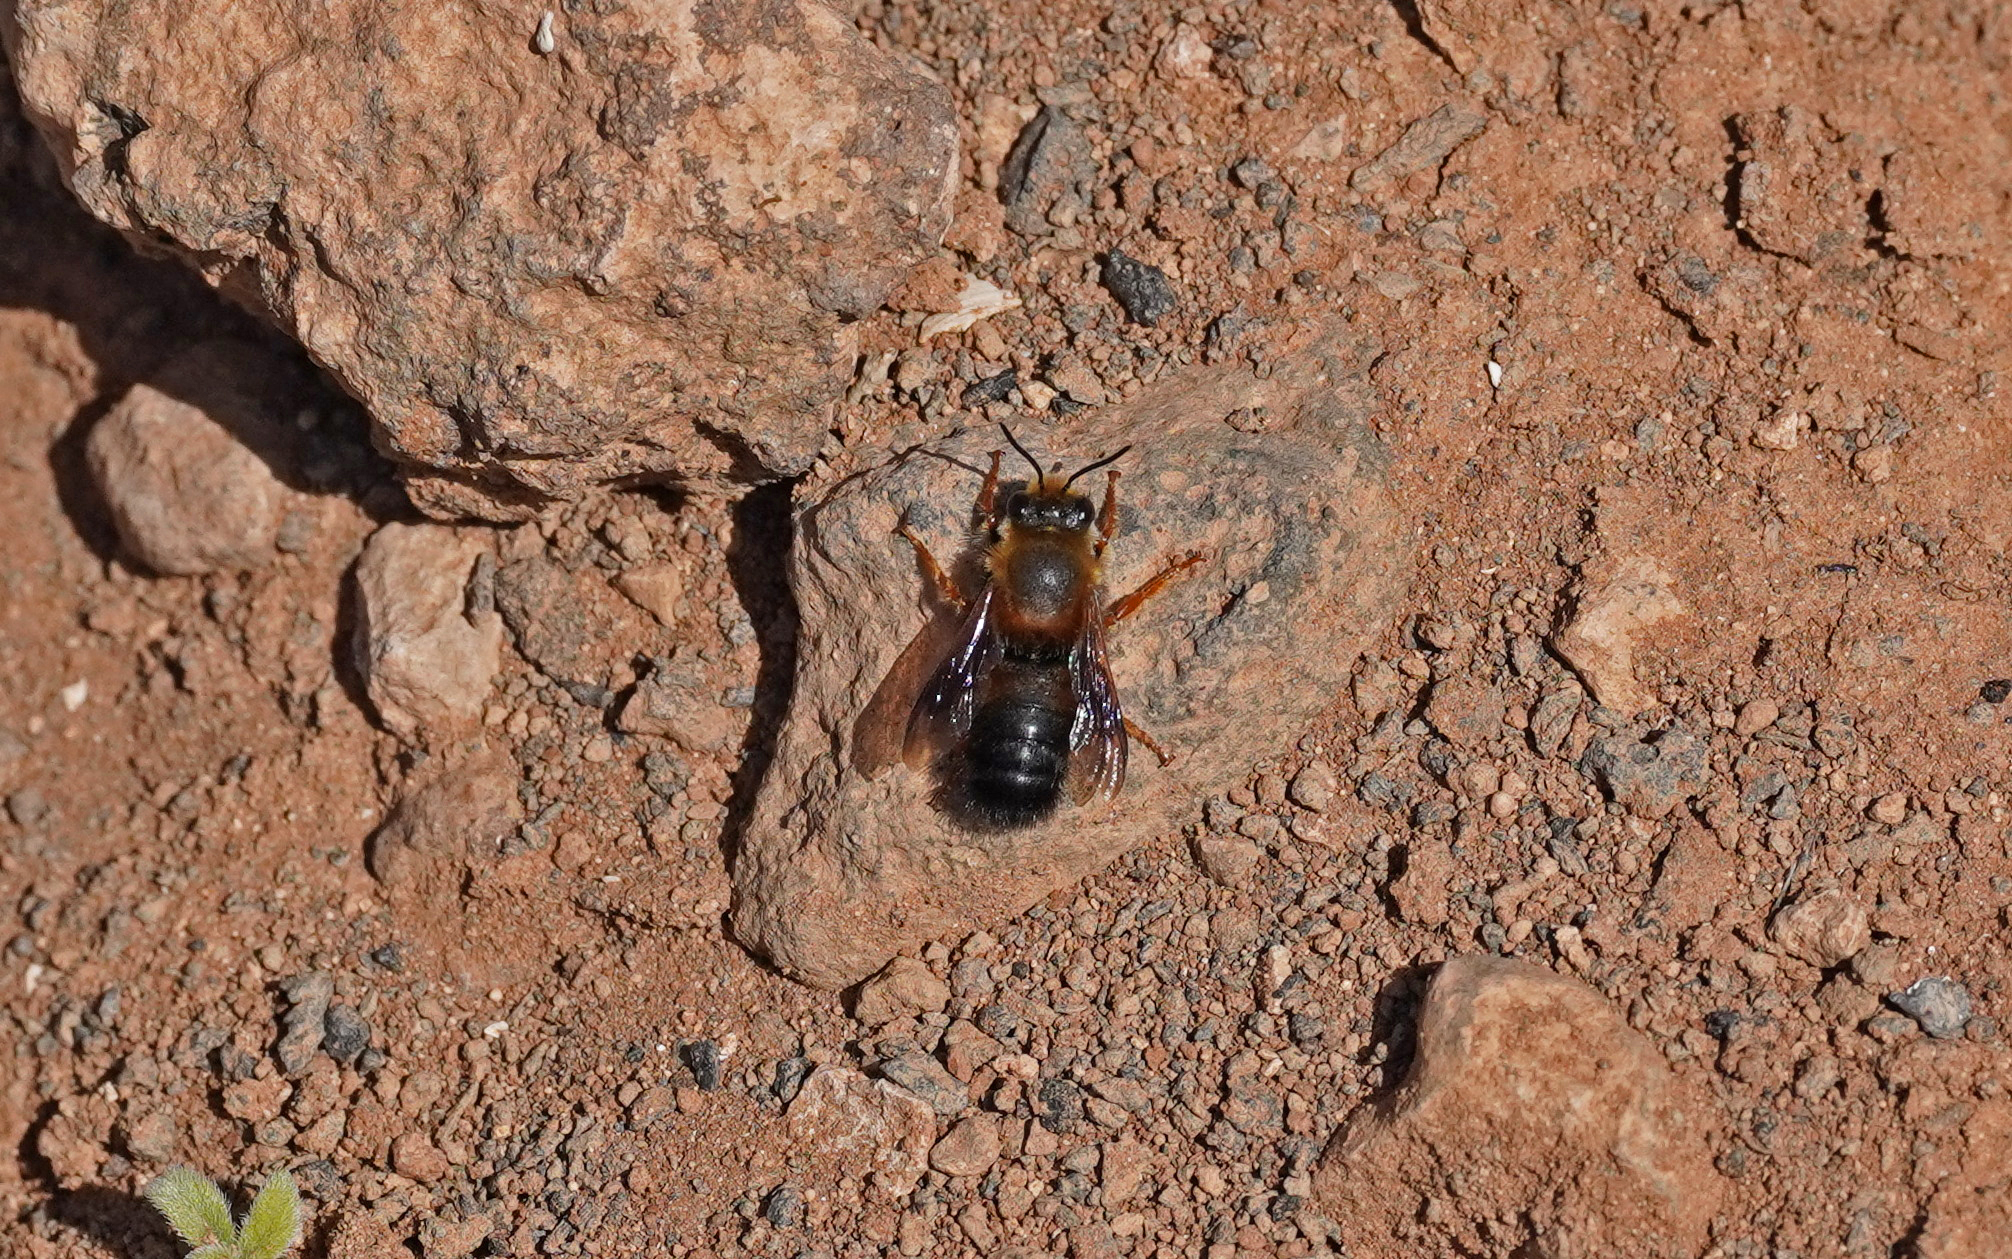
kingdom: Animalia
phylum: Arthropoda
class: Insecta
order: Hymenoptera
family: Megachilidae
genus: Megachile
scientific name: Megachile sicula
